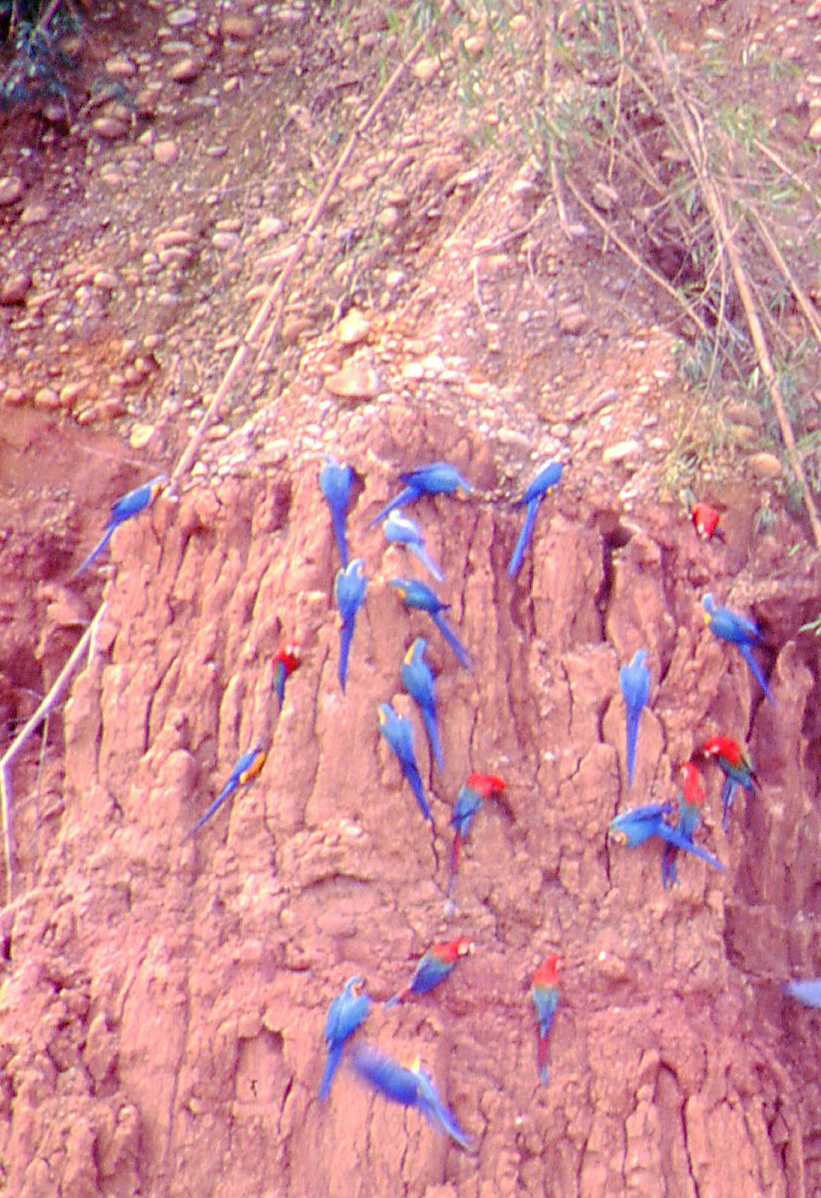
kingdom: Animalia
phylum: Chordata
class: Aves
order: Psittaciformes
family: Psittacidae
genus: Ara
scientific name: Ara ararauna
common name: Blue-and-yellow macaw
